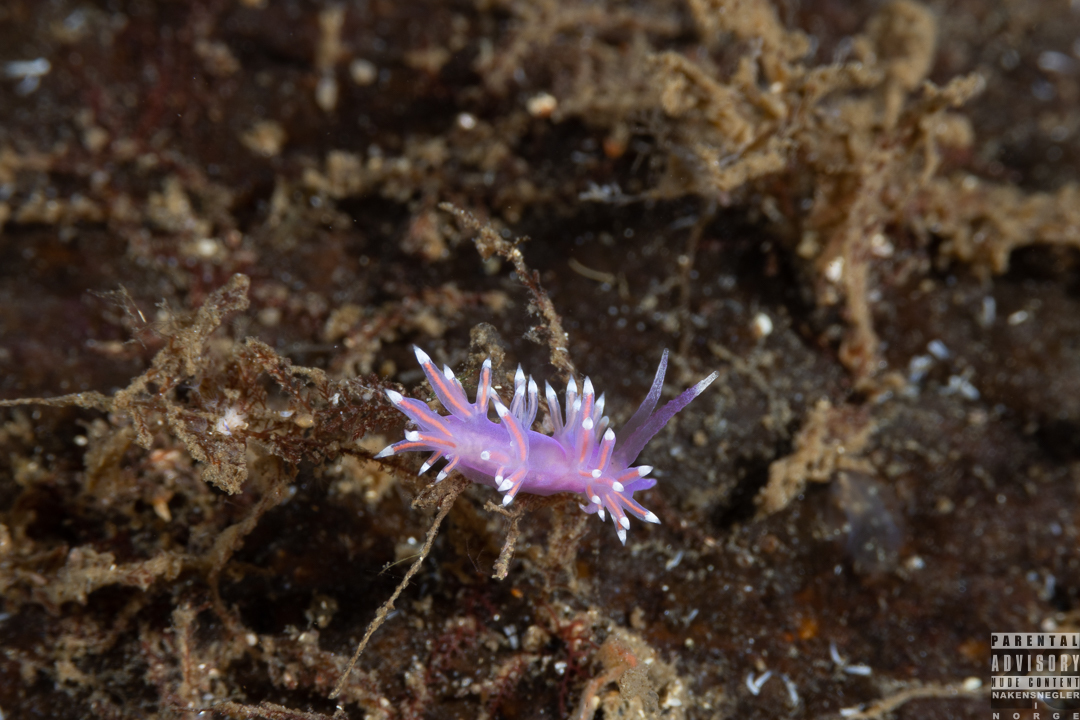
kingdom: Animalia
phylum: Mollusca
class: Gastropoda
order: Nudibranchia
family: Flabellinidae
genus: Edmundsella
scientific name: Edmundsella pedata
